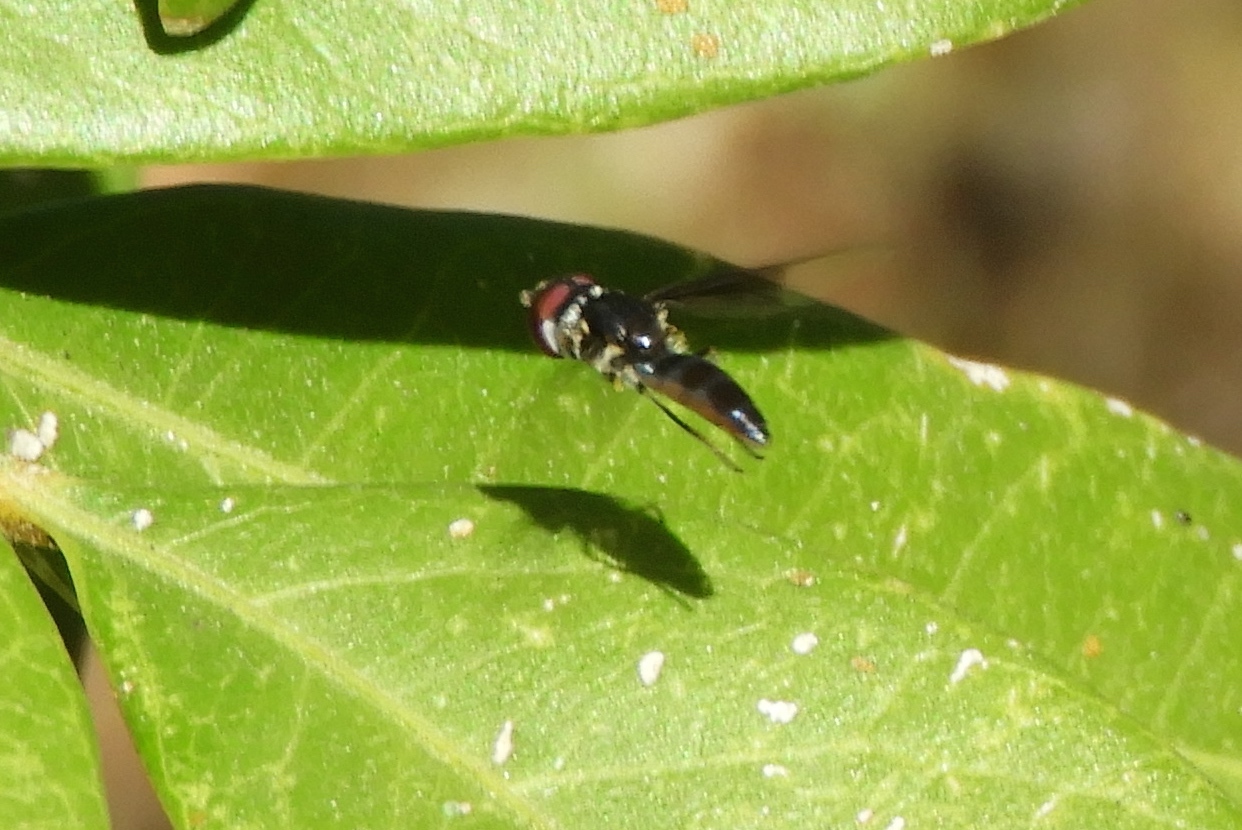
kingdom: Animalia
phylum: Arthropoda
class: Insecta
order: Diptera
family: Syrphidae
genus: Ocyptamus
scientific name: Ocyptamus
